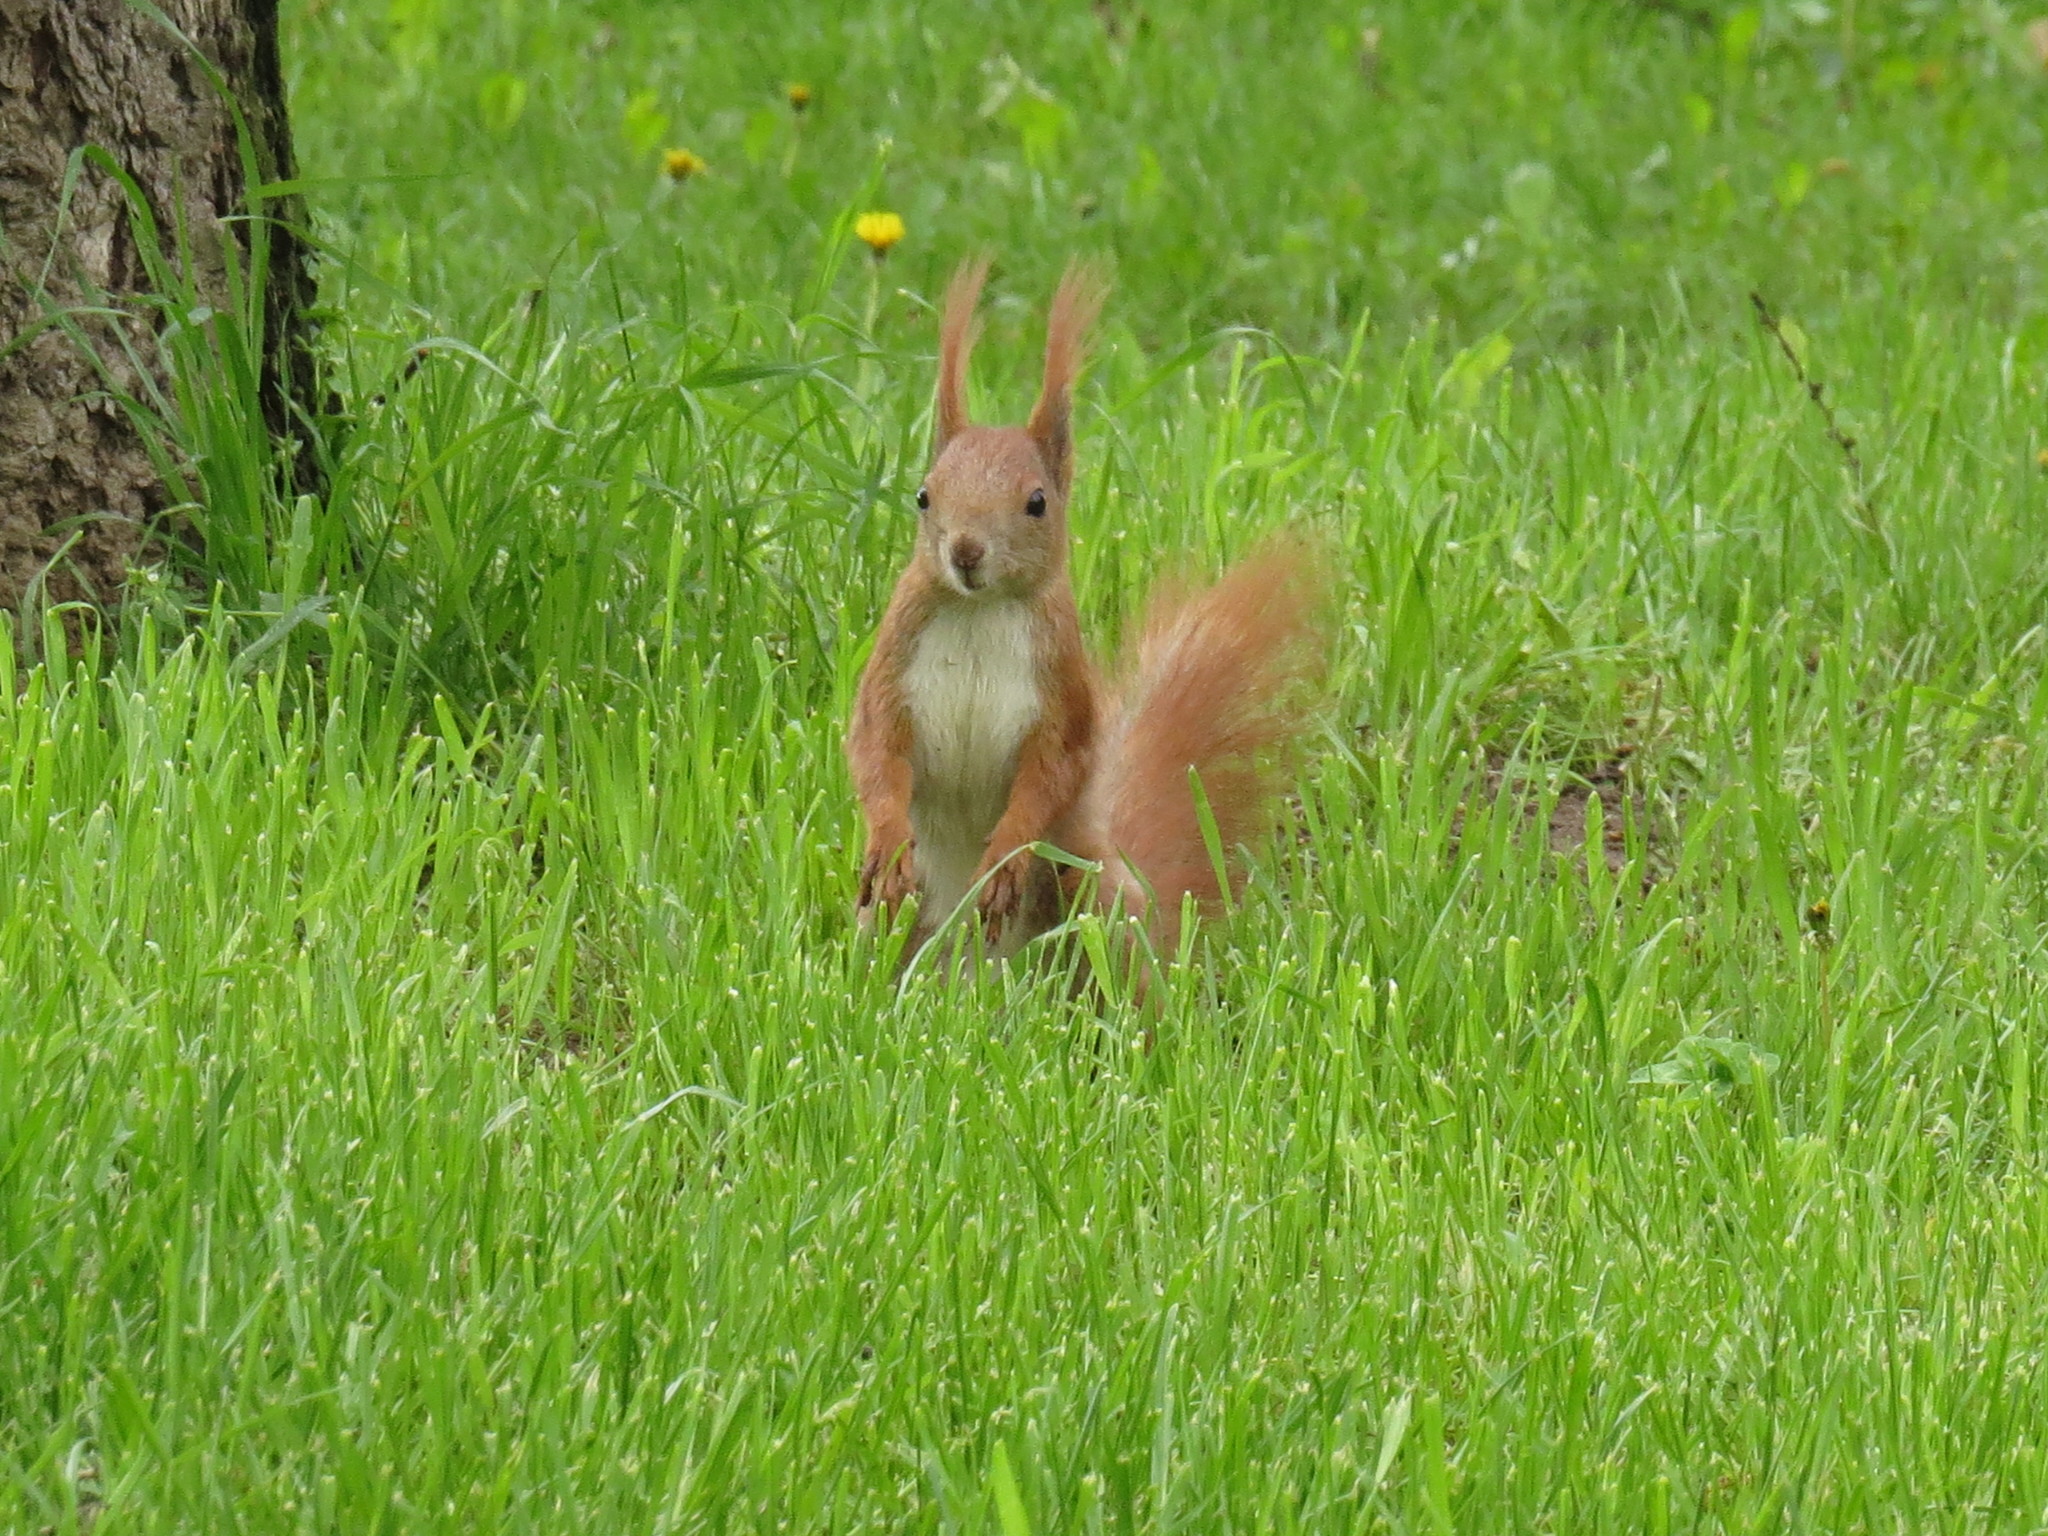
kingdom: Animalia
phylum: Chordata
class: Mammalia
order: Rodentia
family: Sciuridae
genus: Sciurus
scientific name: Sciurus vulgaris
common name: Eurasian red squirrel
